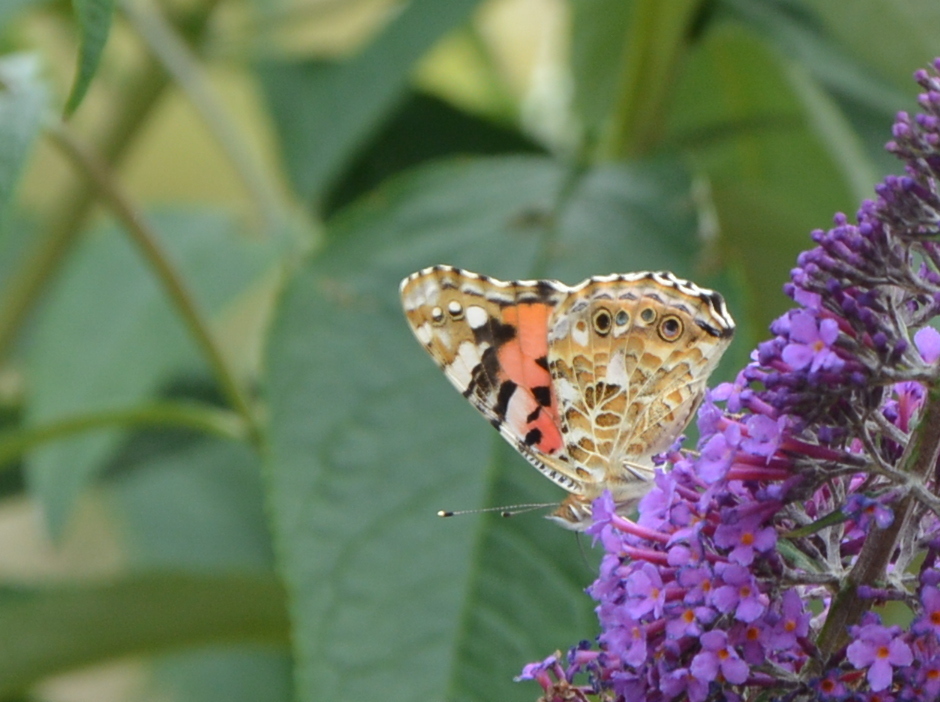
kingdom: Animalia
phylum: Arthropoda
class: Insecta
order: Lepidoptera
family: Nymphalidae
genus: Vanessa
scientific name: Vanessa cardui
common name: Painted lady
